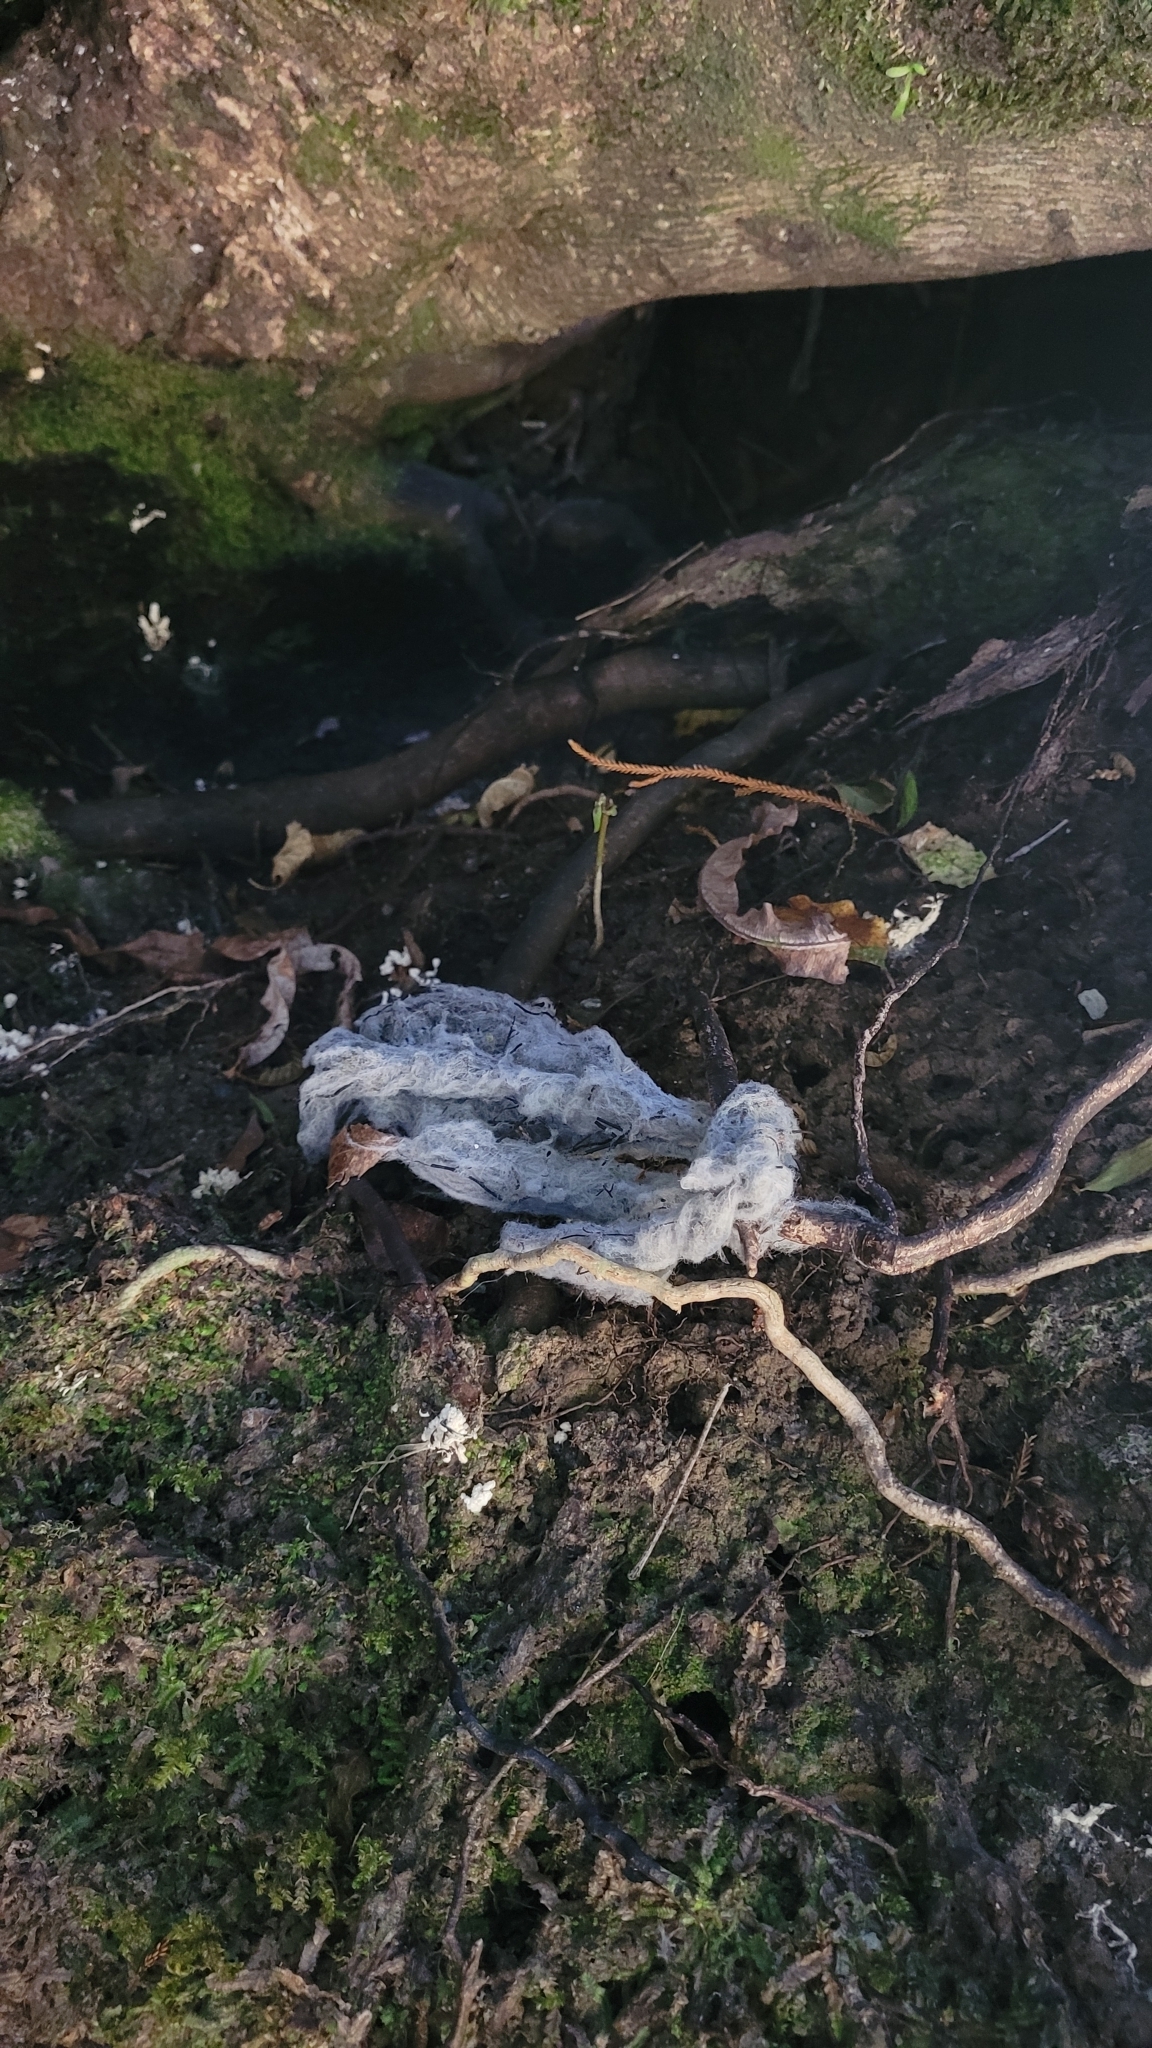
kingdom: Animalia
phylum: Chordata
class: Mammalia
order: Artiodactyla
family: Bovidae
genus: Rupicapra
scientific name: Rupicapra rupicapra
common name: Chamois
